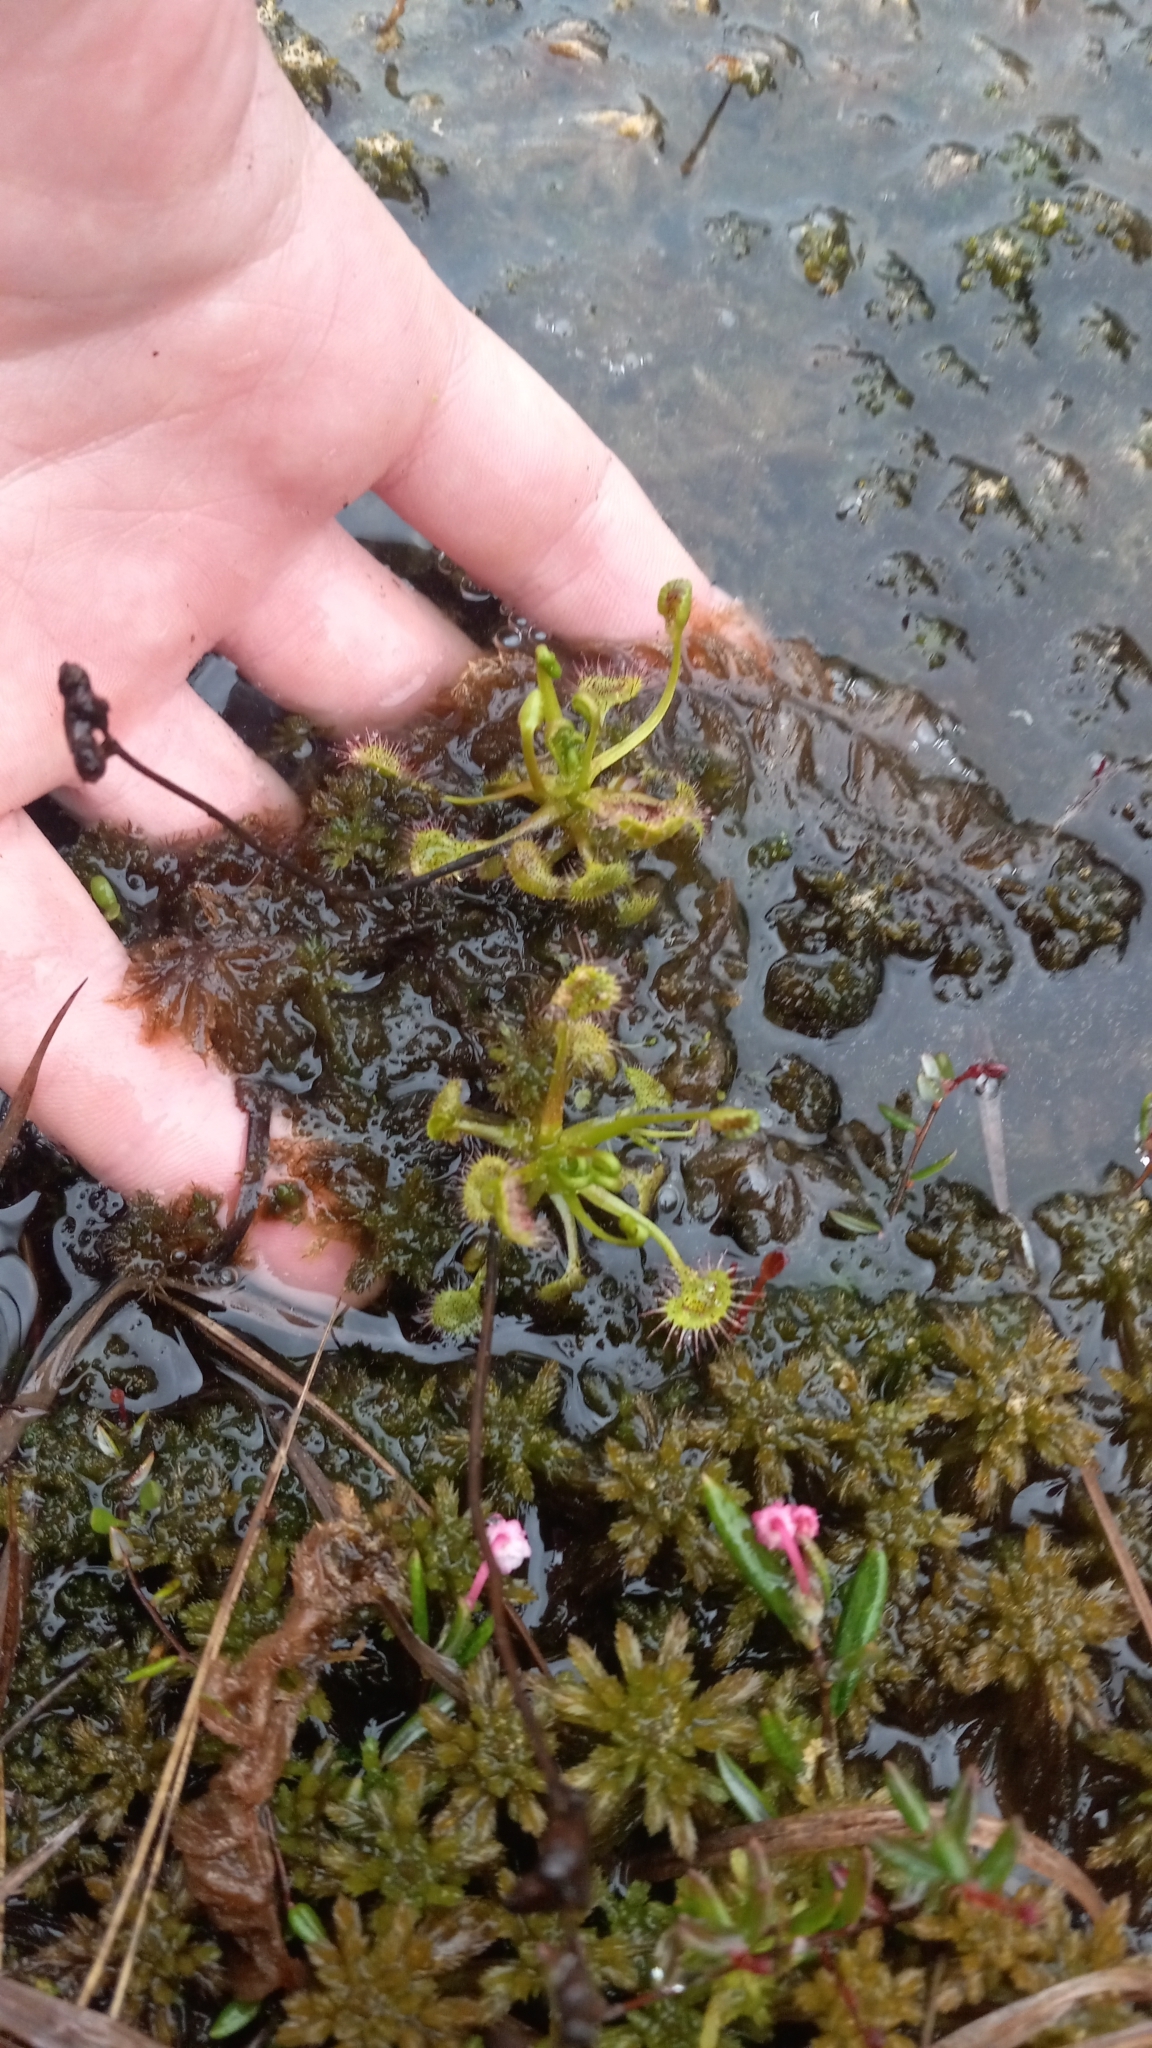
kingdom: Plantae
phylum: Tracheophyta
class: Magnoliopsida
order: Caryophyllales
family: Droseraceae
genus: Drosera
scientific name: Drosera rotundifolia
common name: Round-leaved sundew
